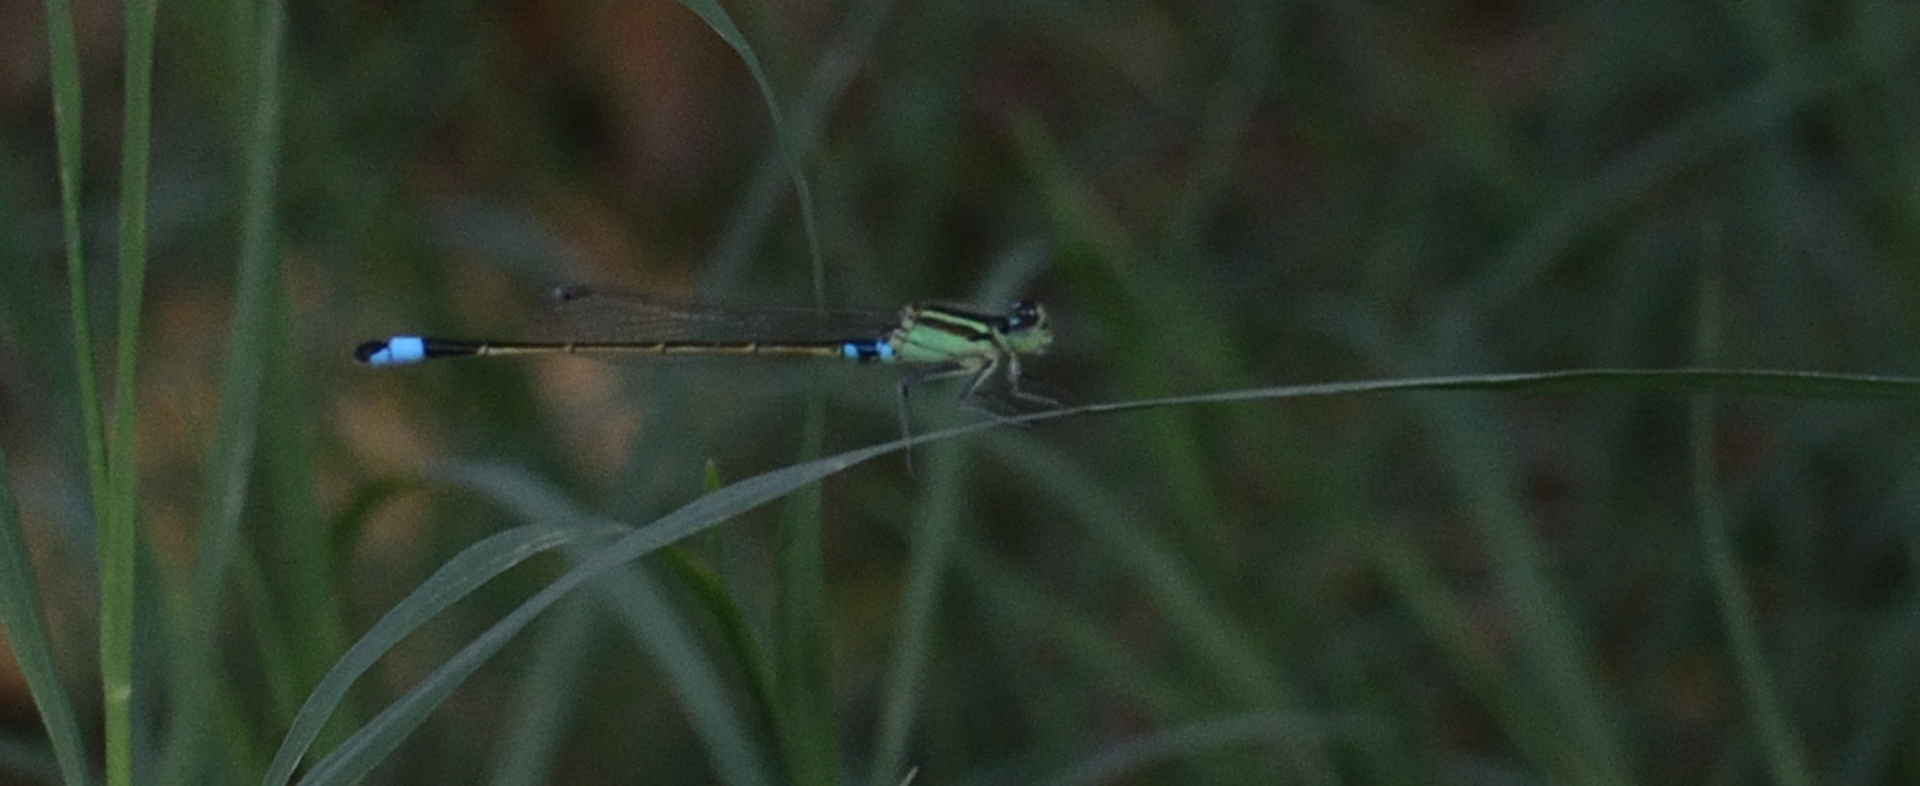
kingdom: Animalia
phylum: Arthropoda
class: Insecta
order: Odonata
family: Coenagrionidae
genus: Ischnura
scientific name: Ischnura senegalensis
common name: Tropical bluetail
